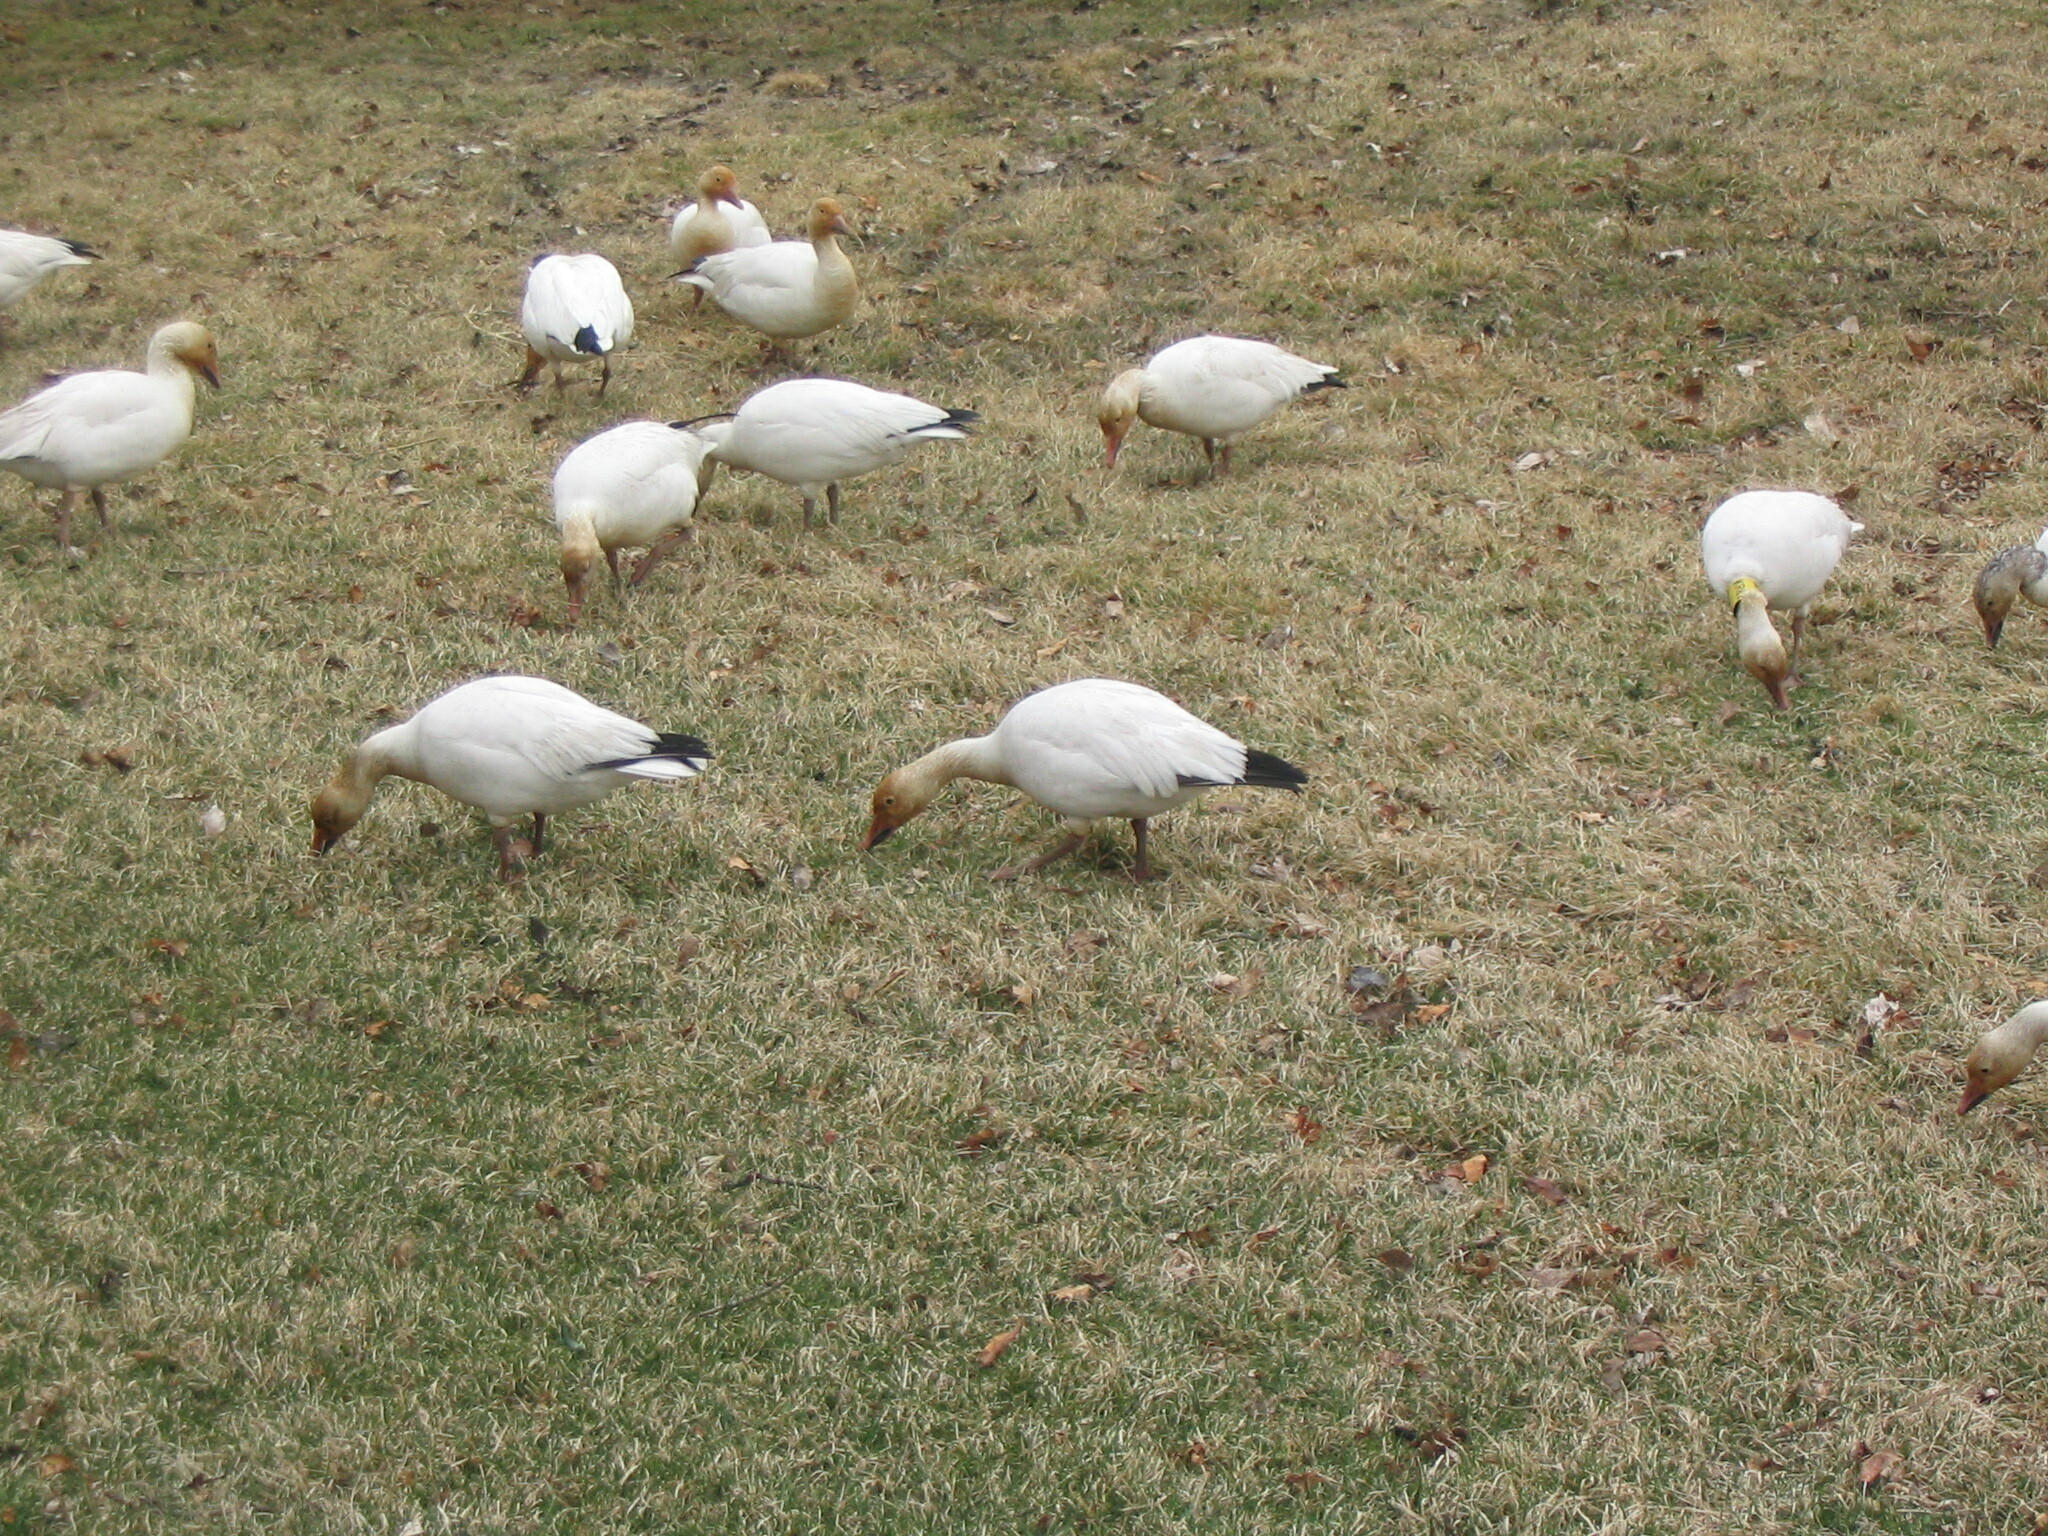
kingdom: Animalia
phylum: Chordata
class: Aves
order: Anseriformes
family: Anatidae
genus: Anser
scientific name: Anser caerulescens
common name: Snow goose
